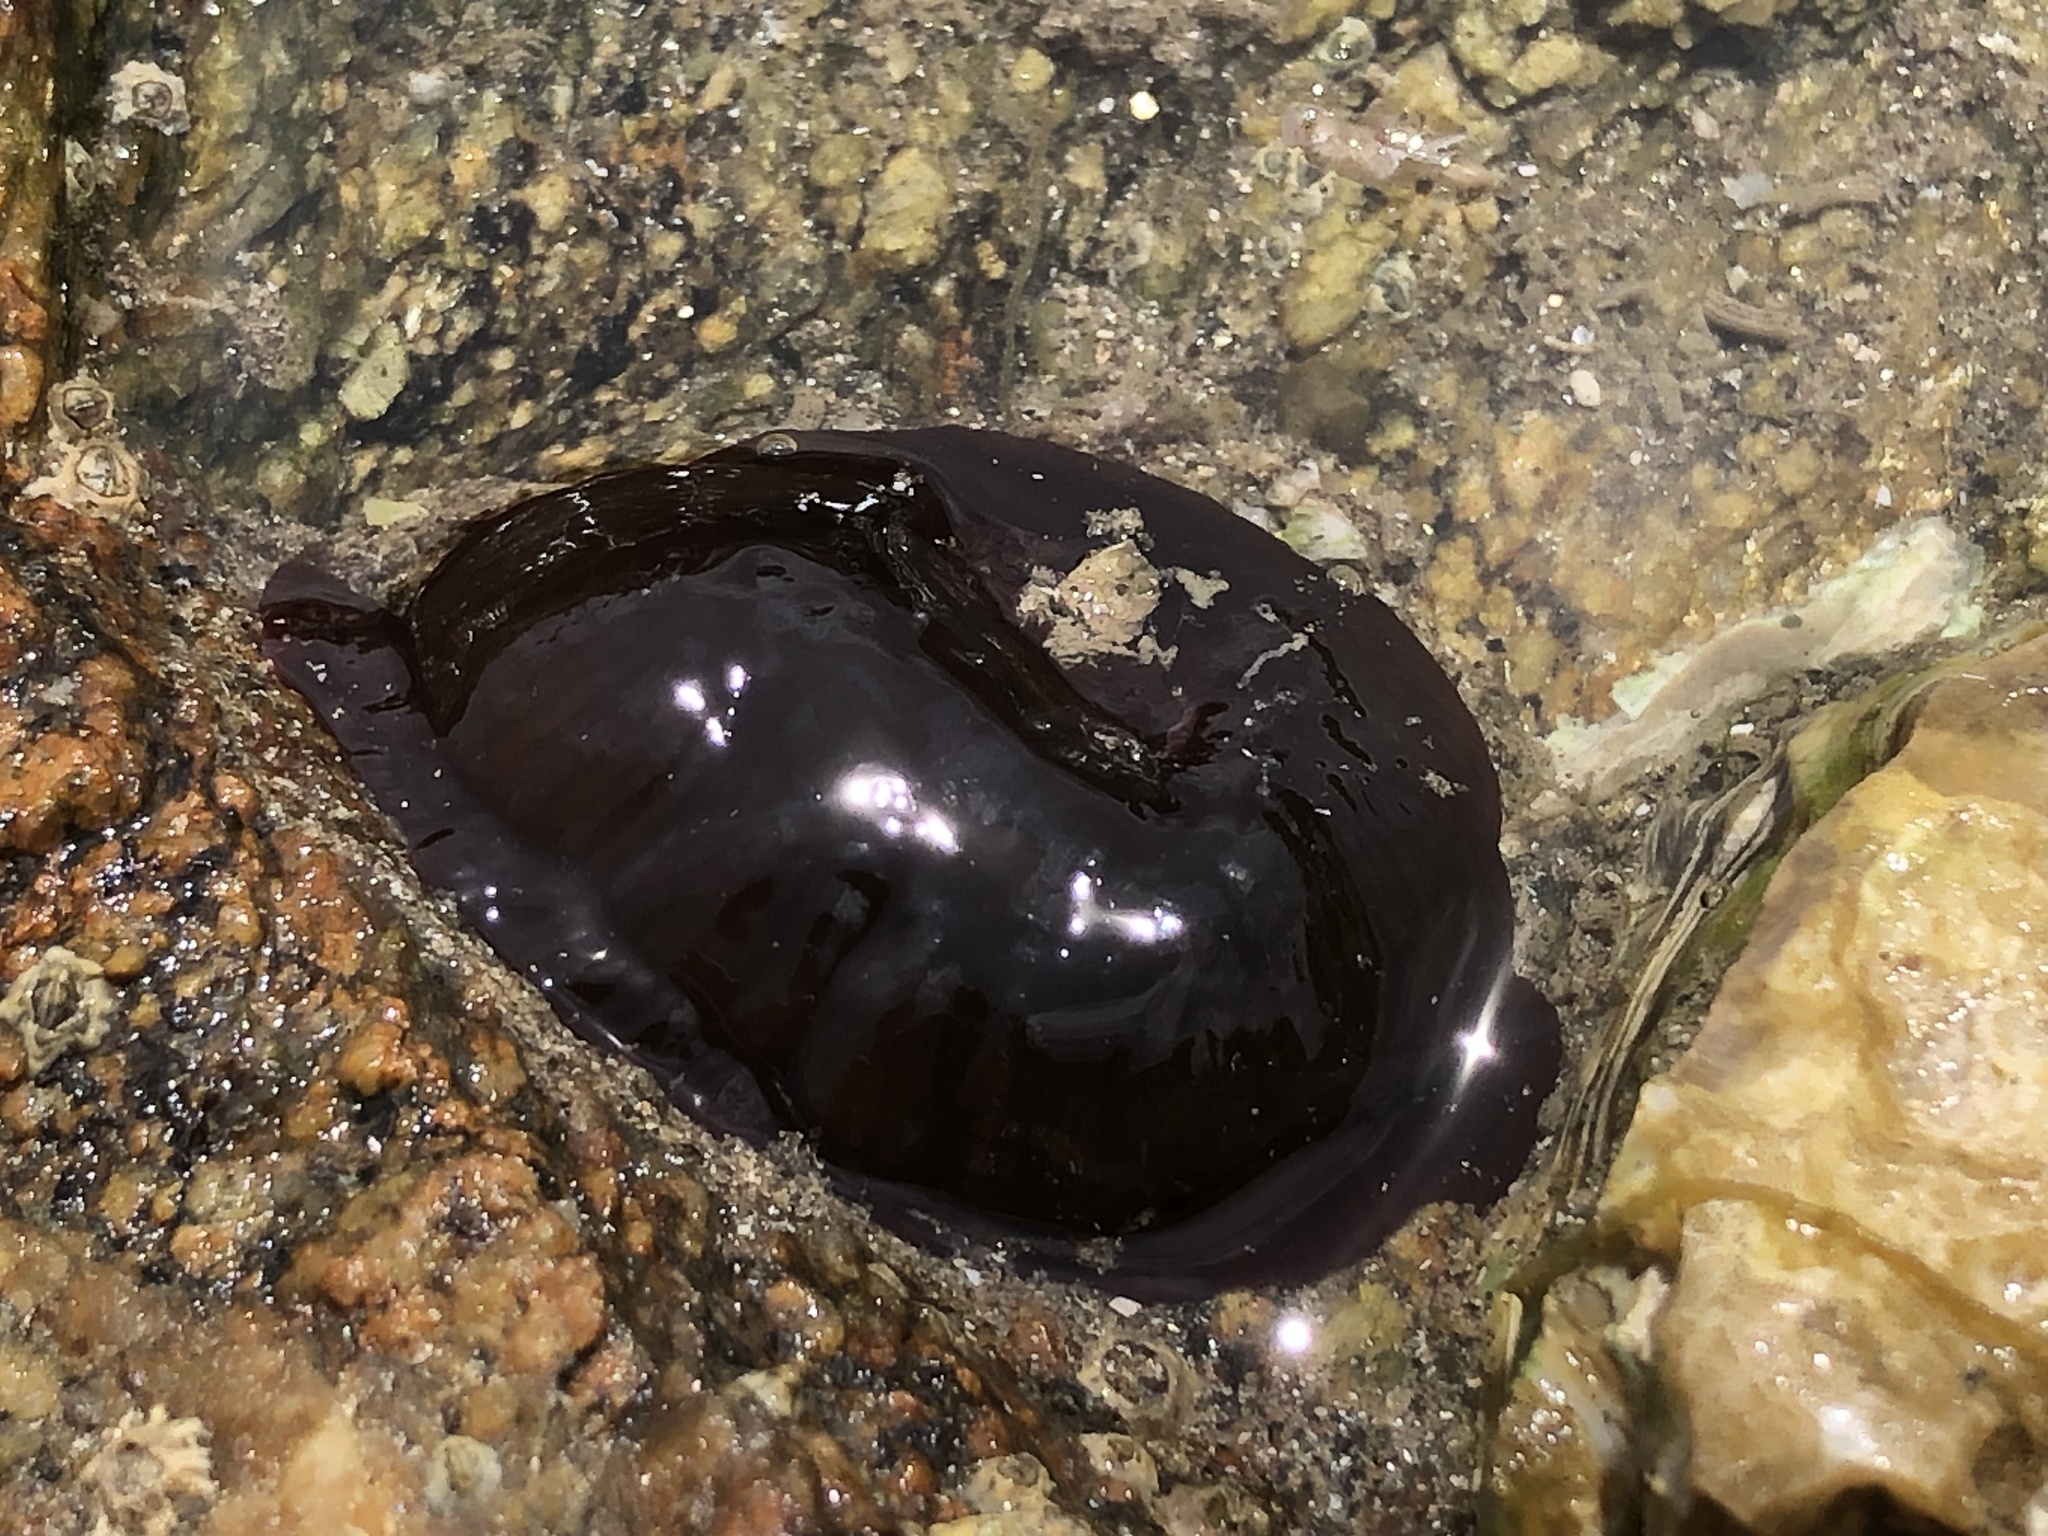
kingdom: Animalia
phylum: Cnidaria
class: Anthozoa
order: Actiniaria
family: Actiniidae
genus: Actinia
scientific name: Actinia equina
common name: Beadlet anemone
